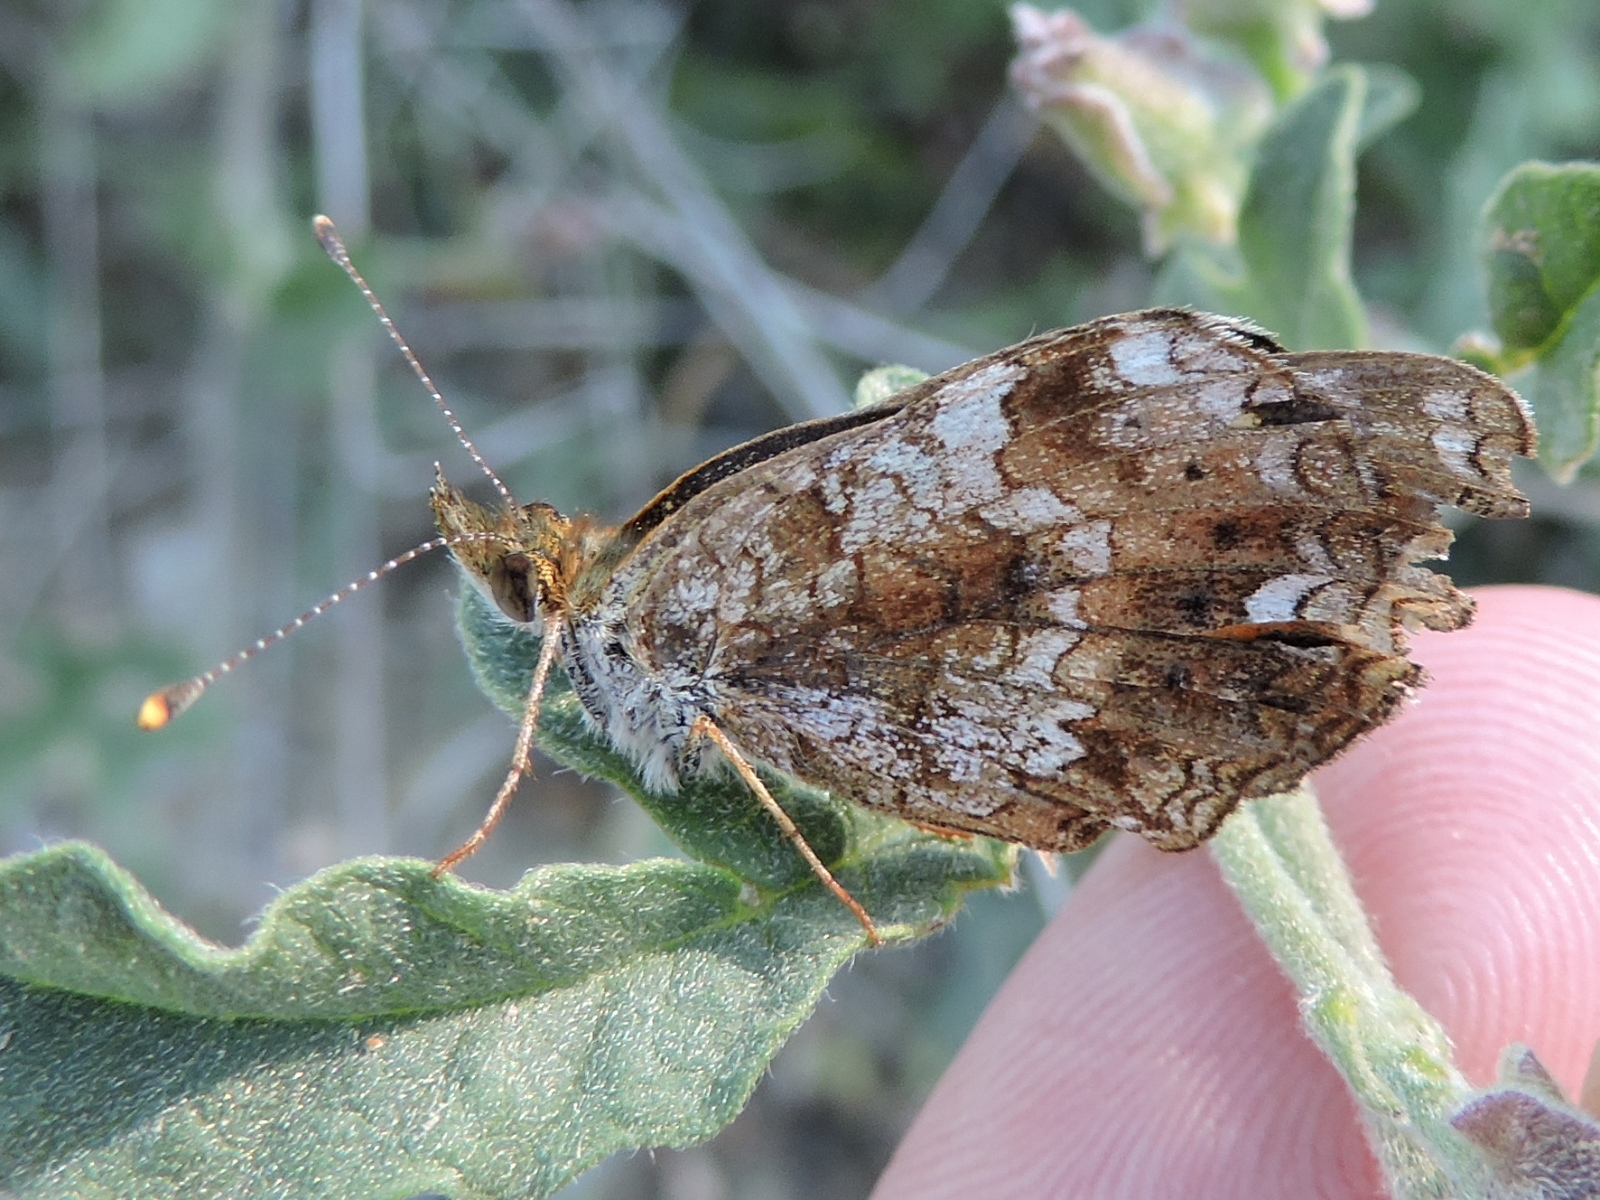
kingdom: Animalia
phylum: Arthropoda
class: Insecta
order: Lepidoptera
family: Nymphalidae
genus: Phyciodes
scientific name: Phyciodes tharos
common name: Pearl crescent
